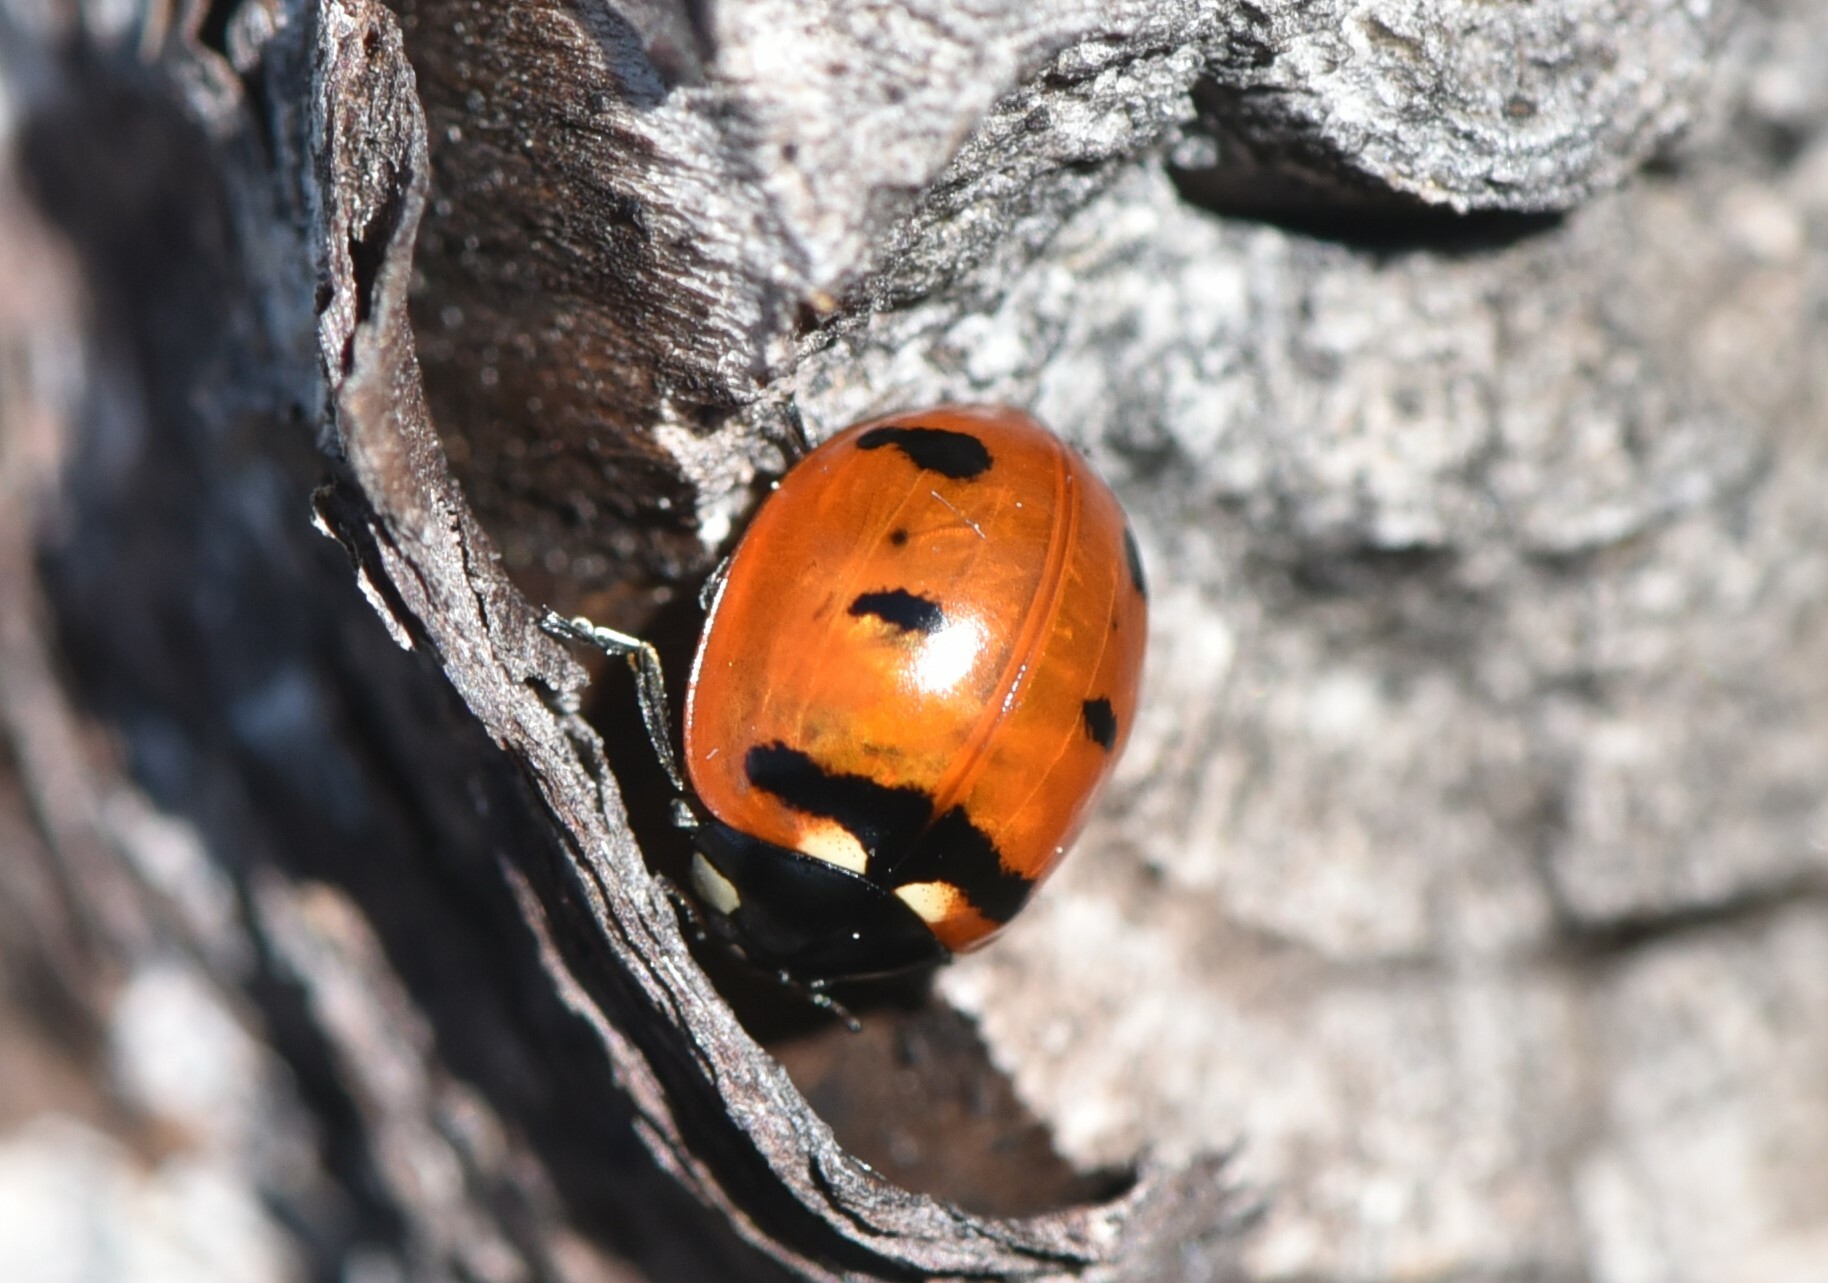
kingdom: Animalia
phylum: Arthropoda
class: Insecta
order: Coleoptera
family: Coccinellidae
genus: Coccinella
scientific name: Coccinella transversoguttata
